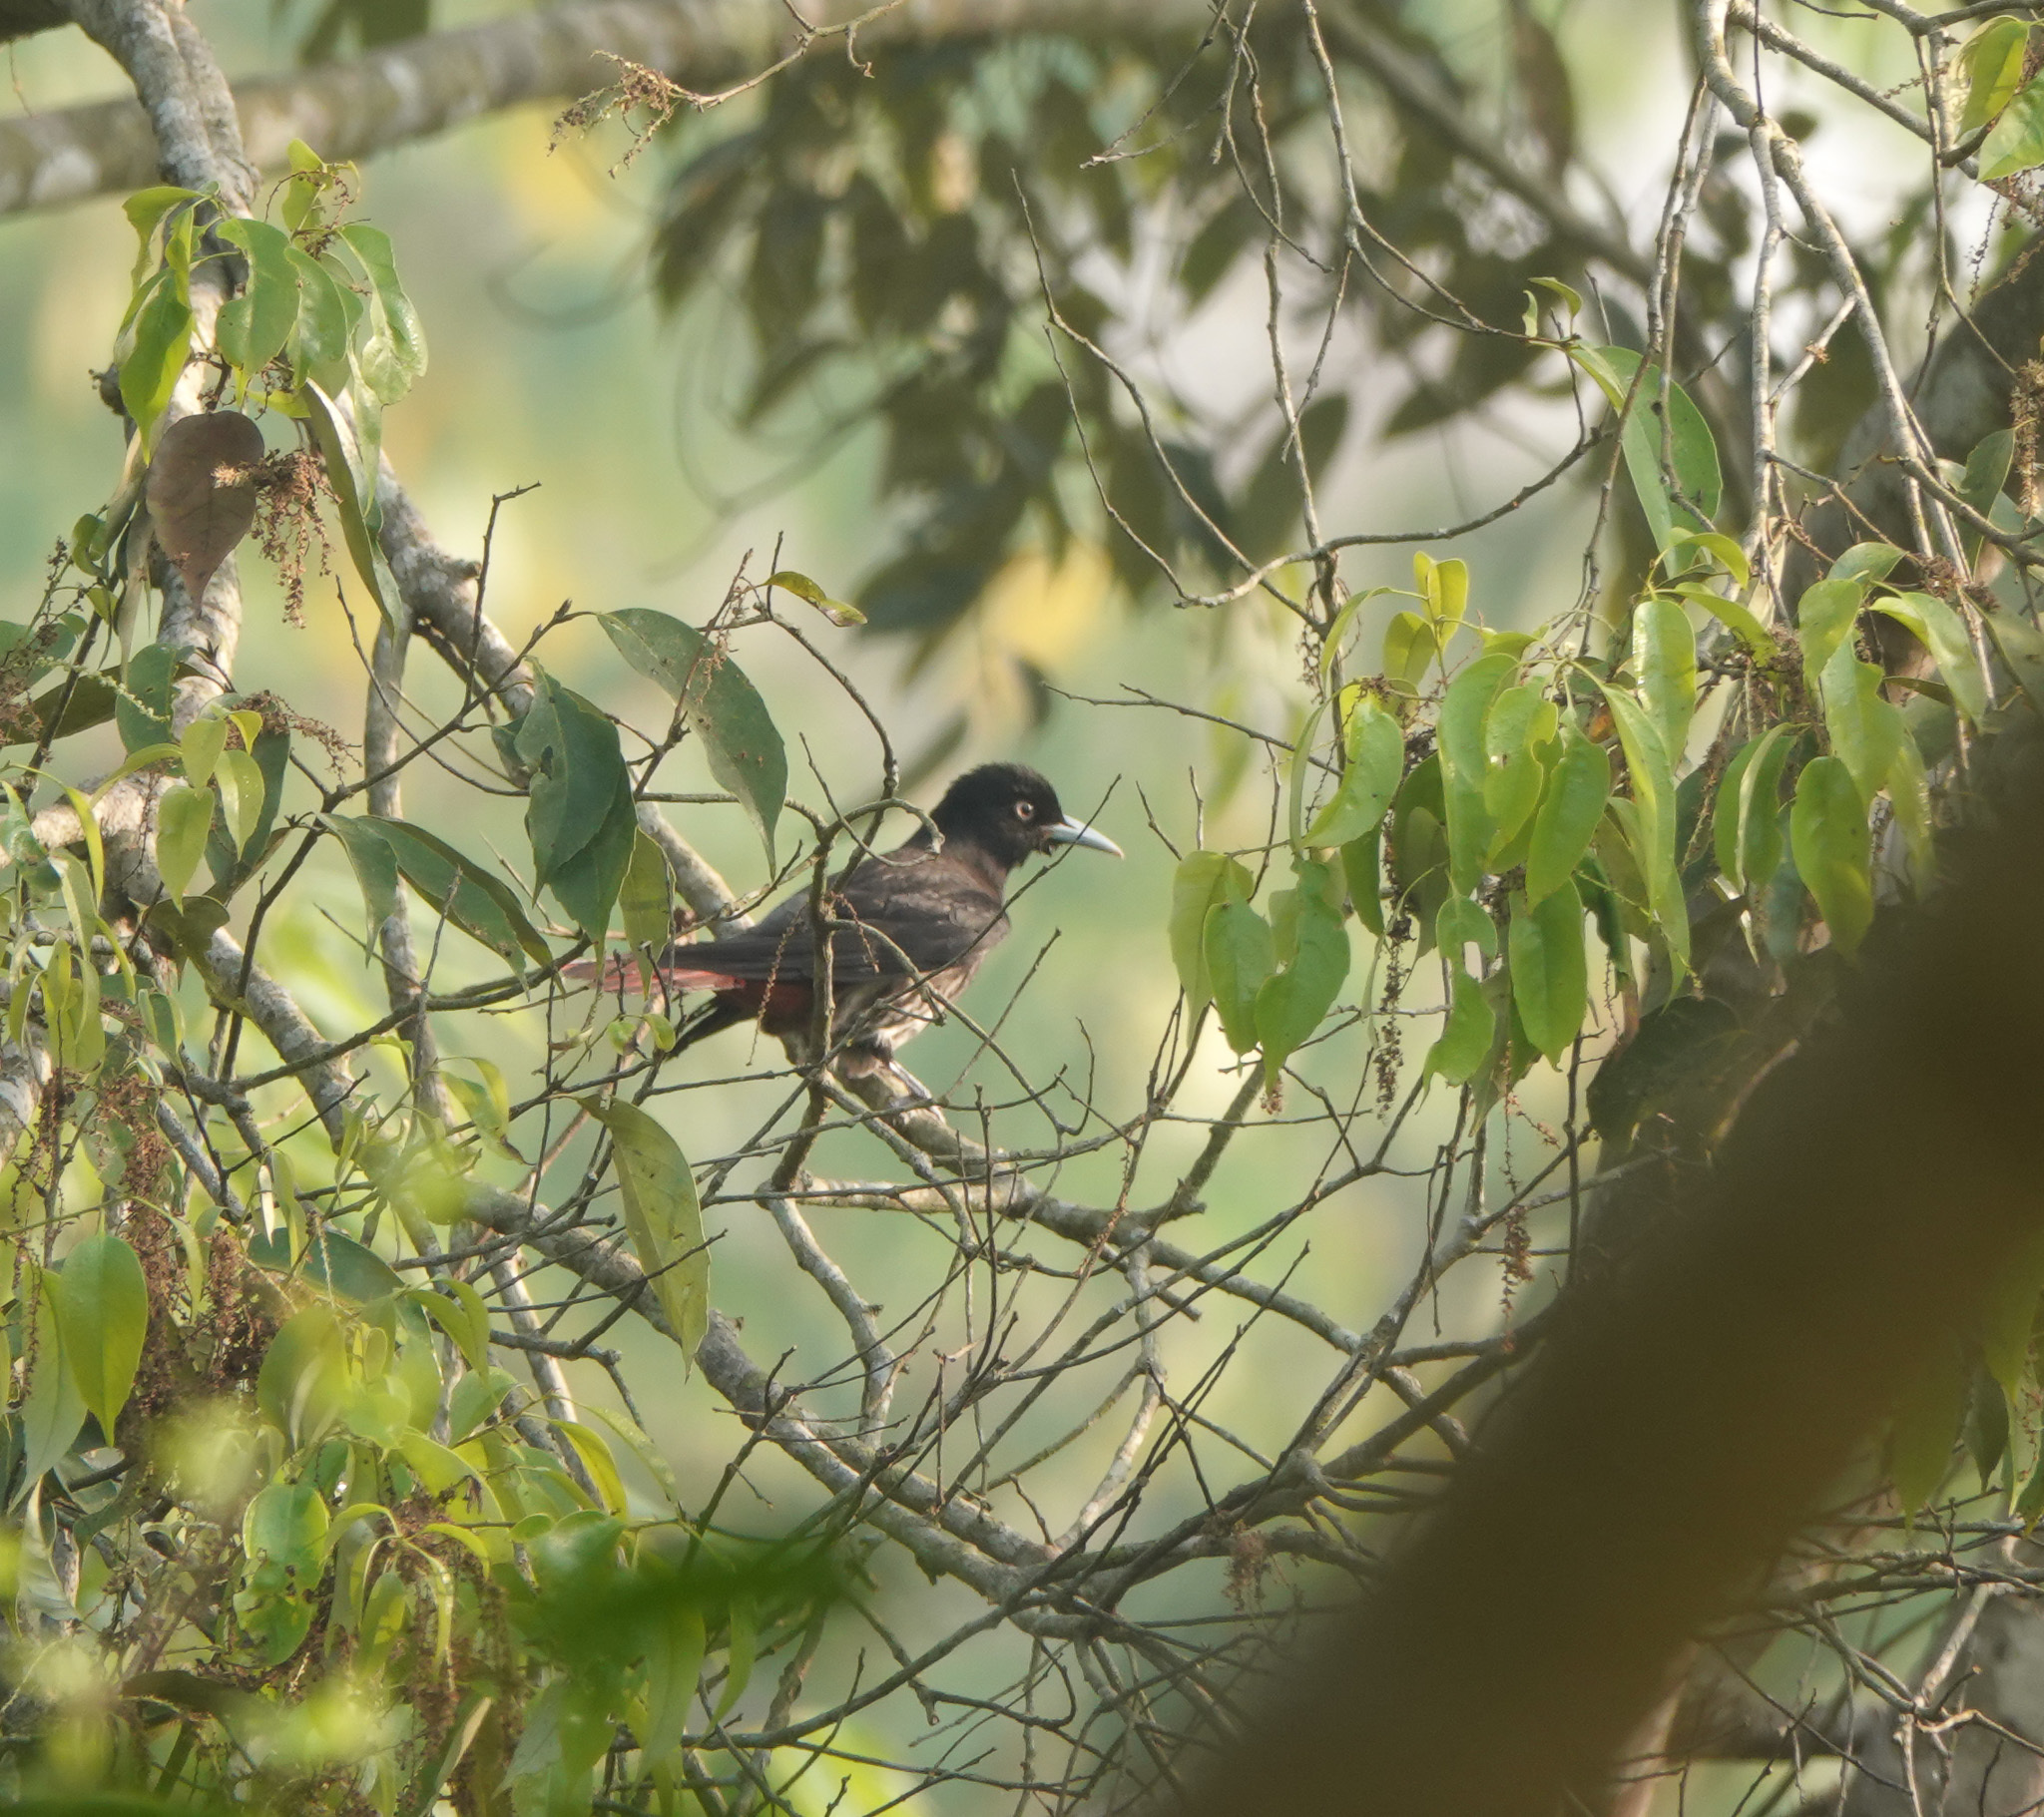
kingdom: Animalia
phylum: Chordata
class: Aves
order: Passeriformes
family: Oriolidae
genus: Oriolus
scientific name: Oriolus traillii
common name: Maroon oriole
